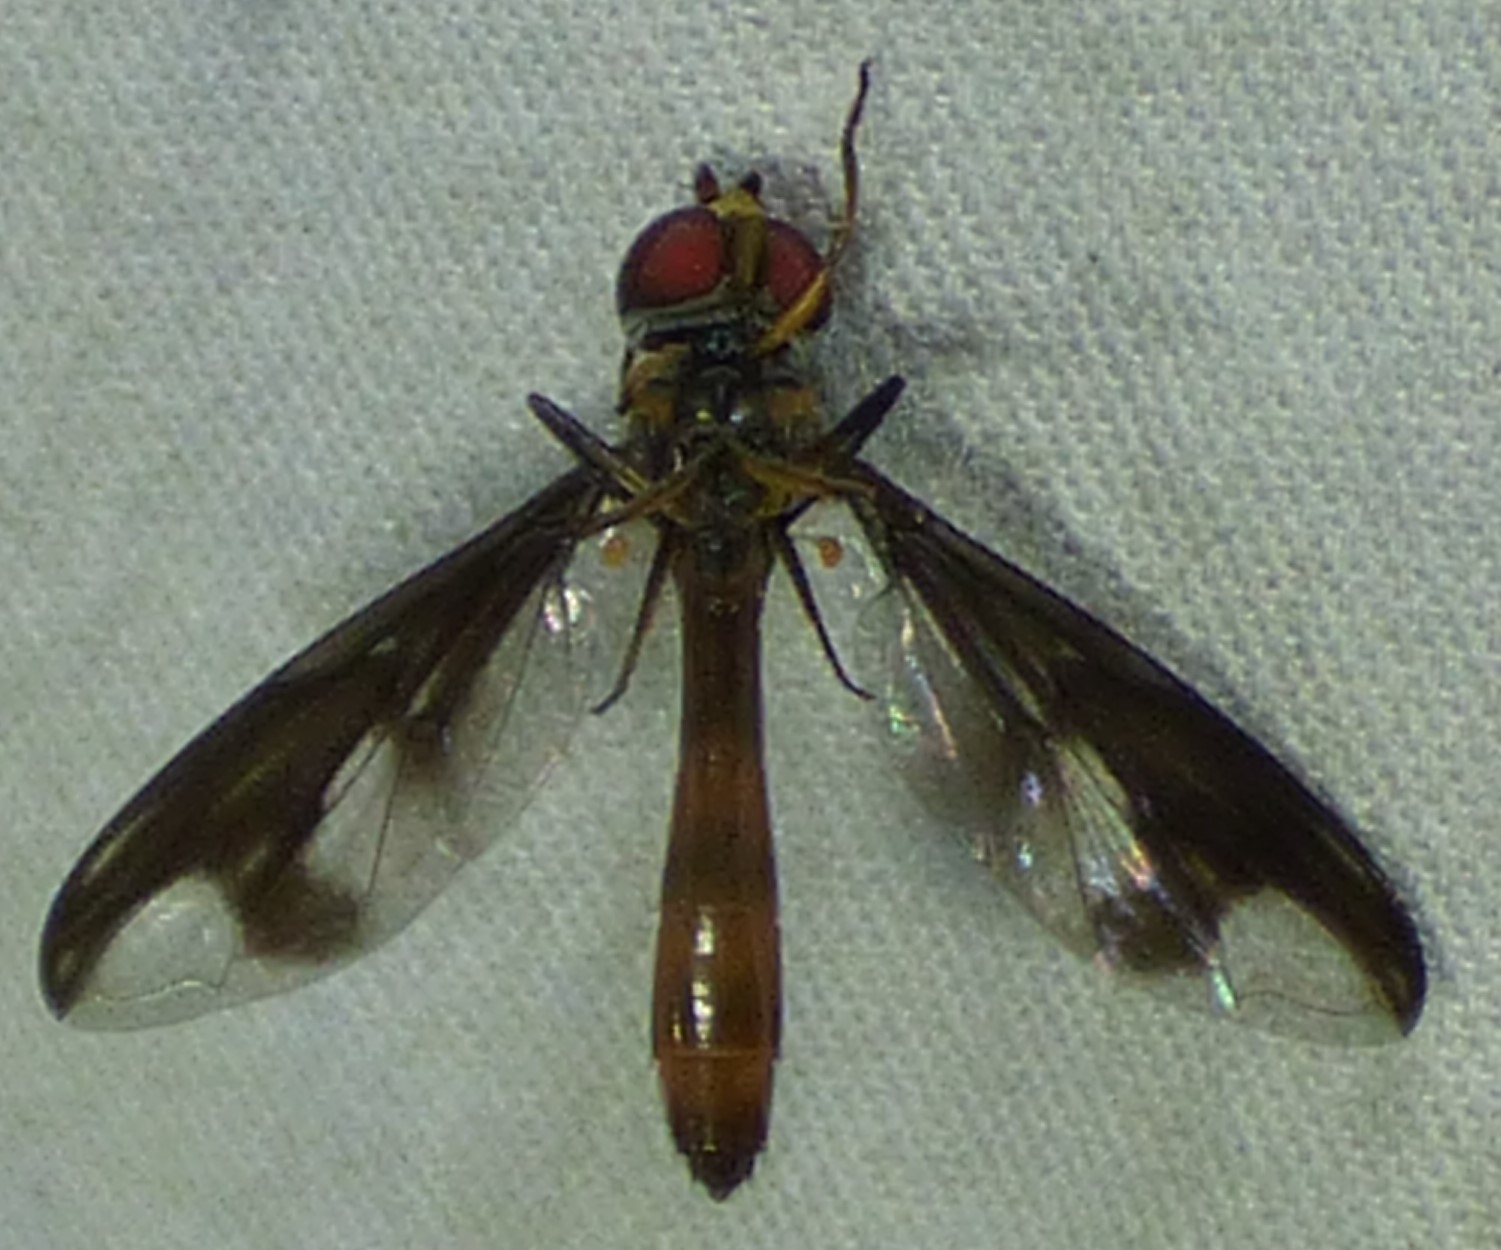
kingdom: Animalia
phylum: Arthropoda
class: Insecta
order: Diptera
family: Syrphidae
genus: Ocyptamus
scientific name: Ocyptamus fuscipennis
